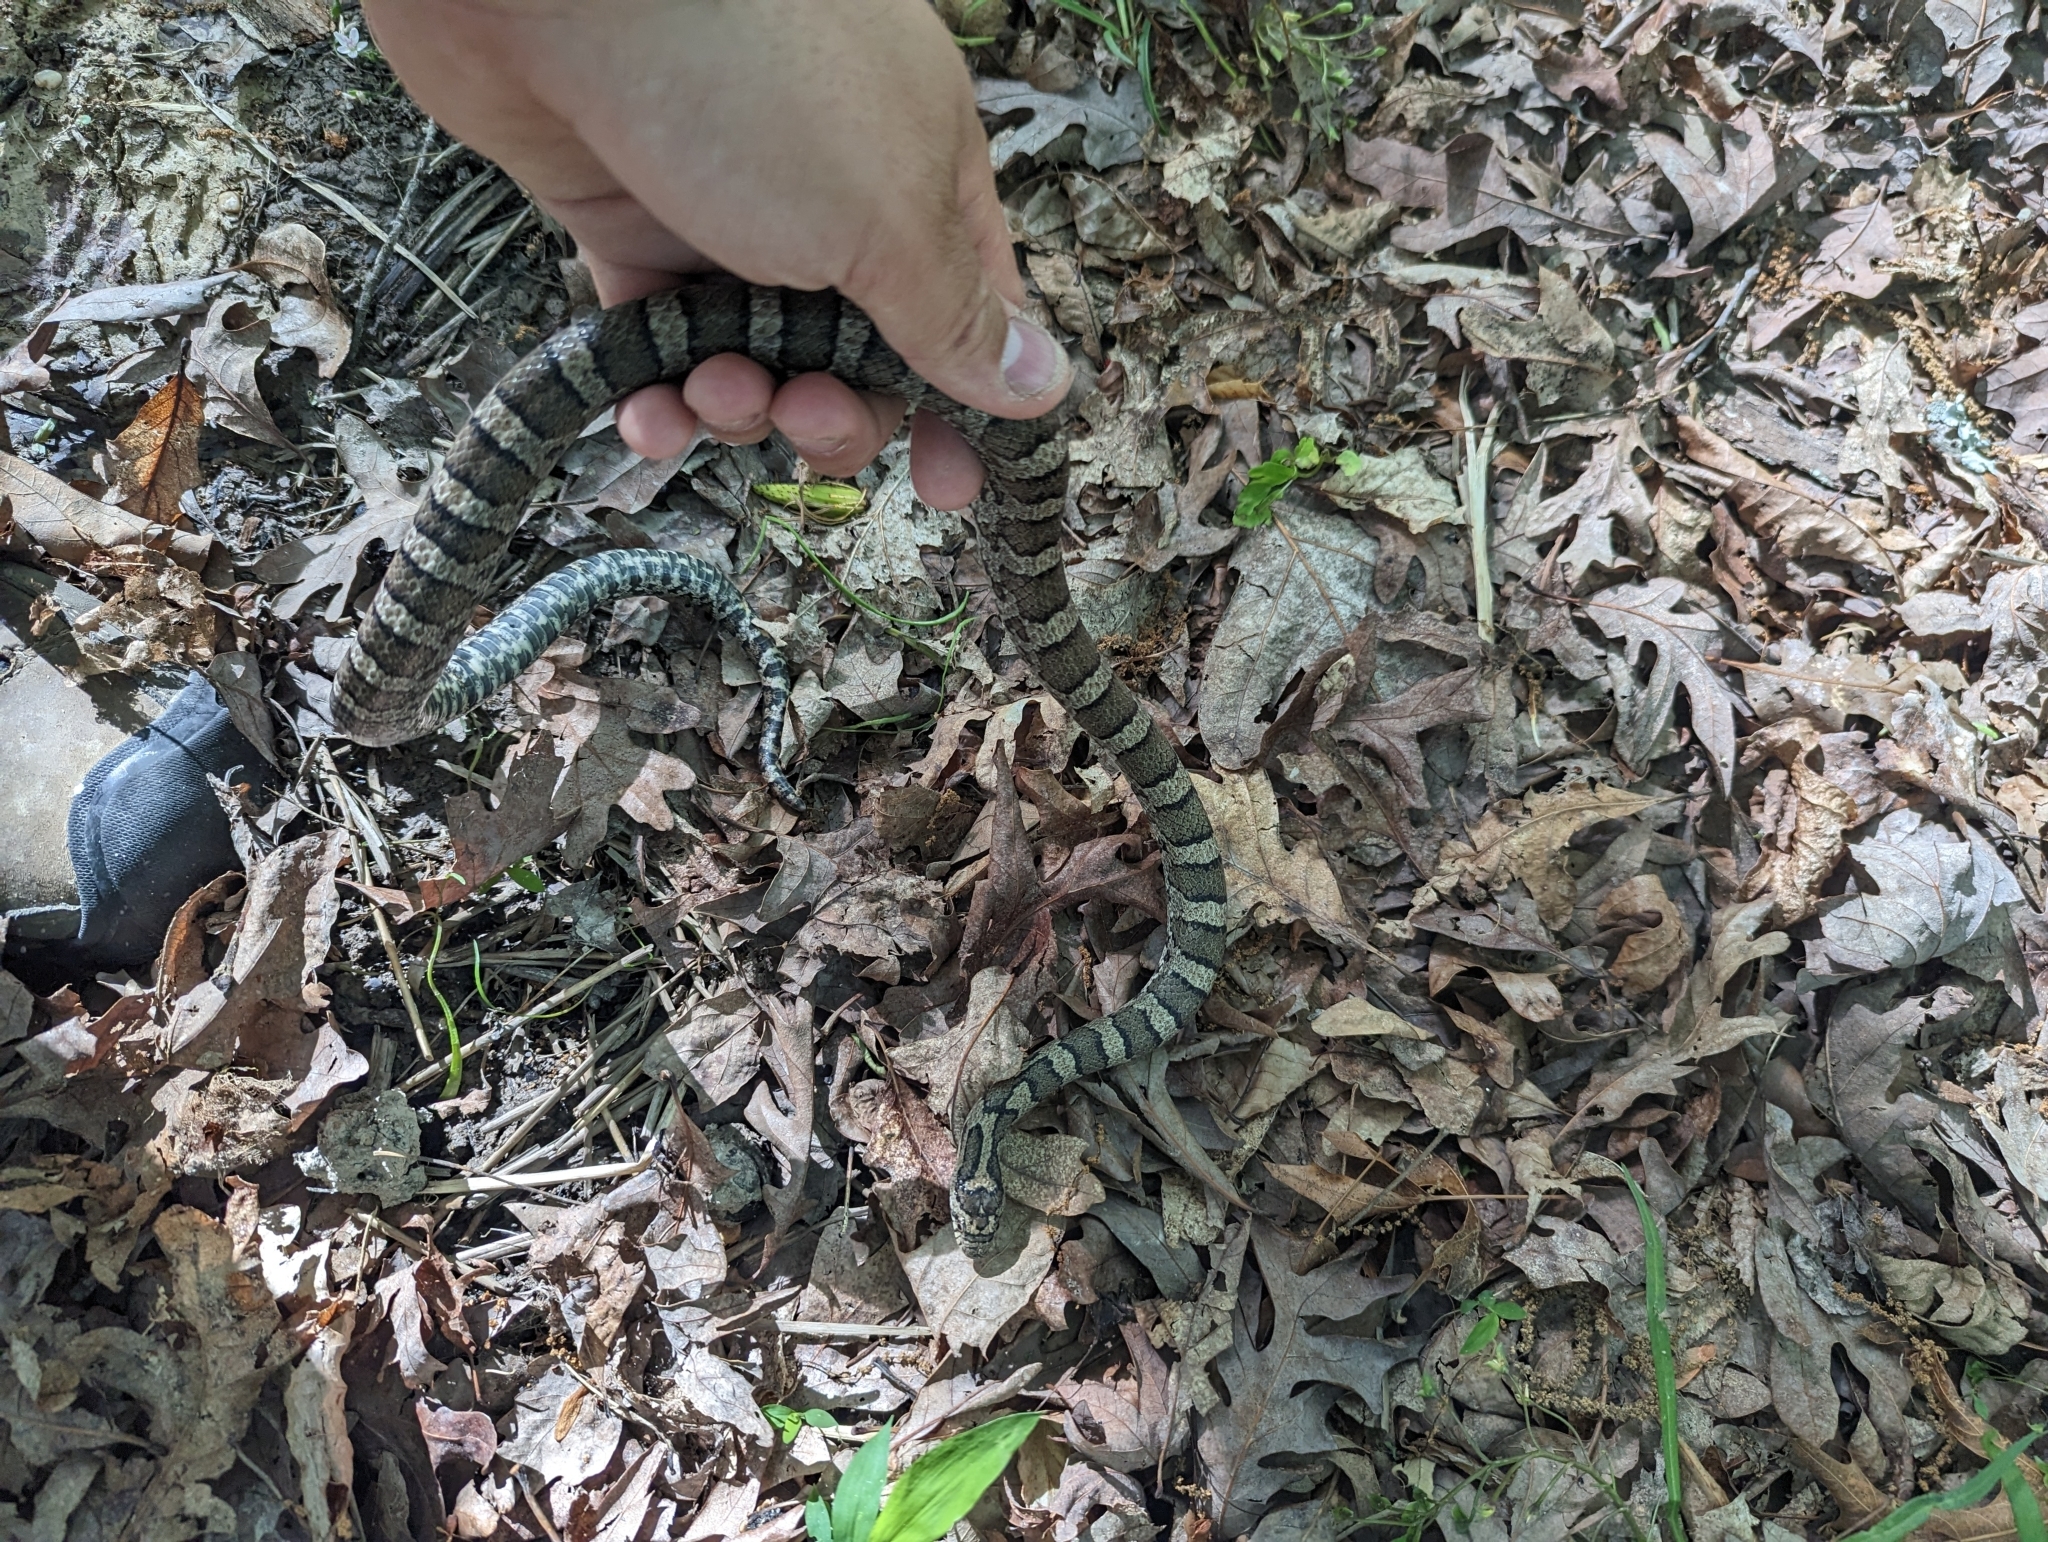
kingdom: Animalia
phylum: Chordata
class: Squamata
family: Colubridae
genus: Lampropeltis
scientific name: Lampropeltis triangulum
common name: Eastern milksnake
